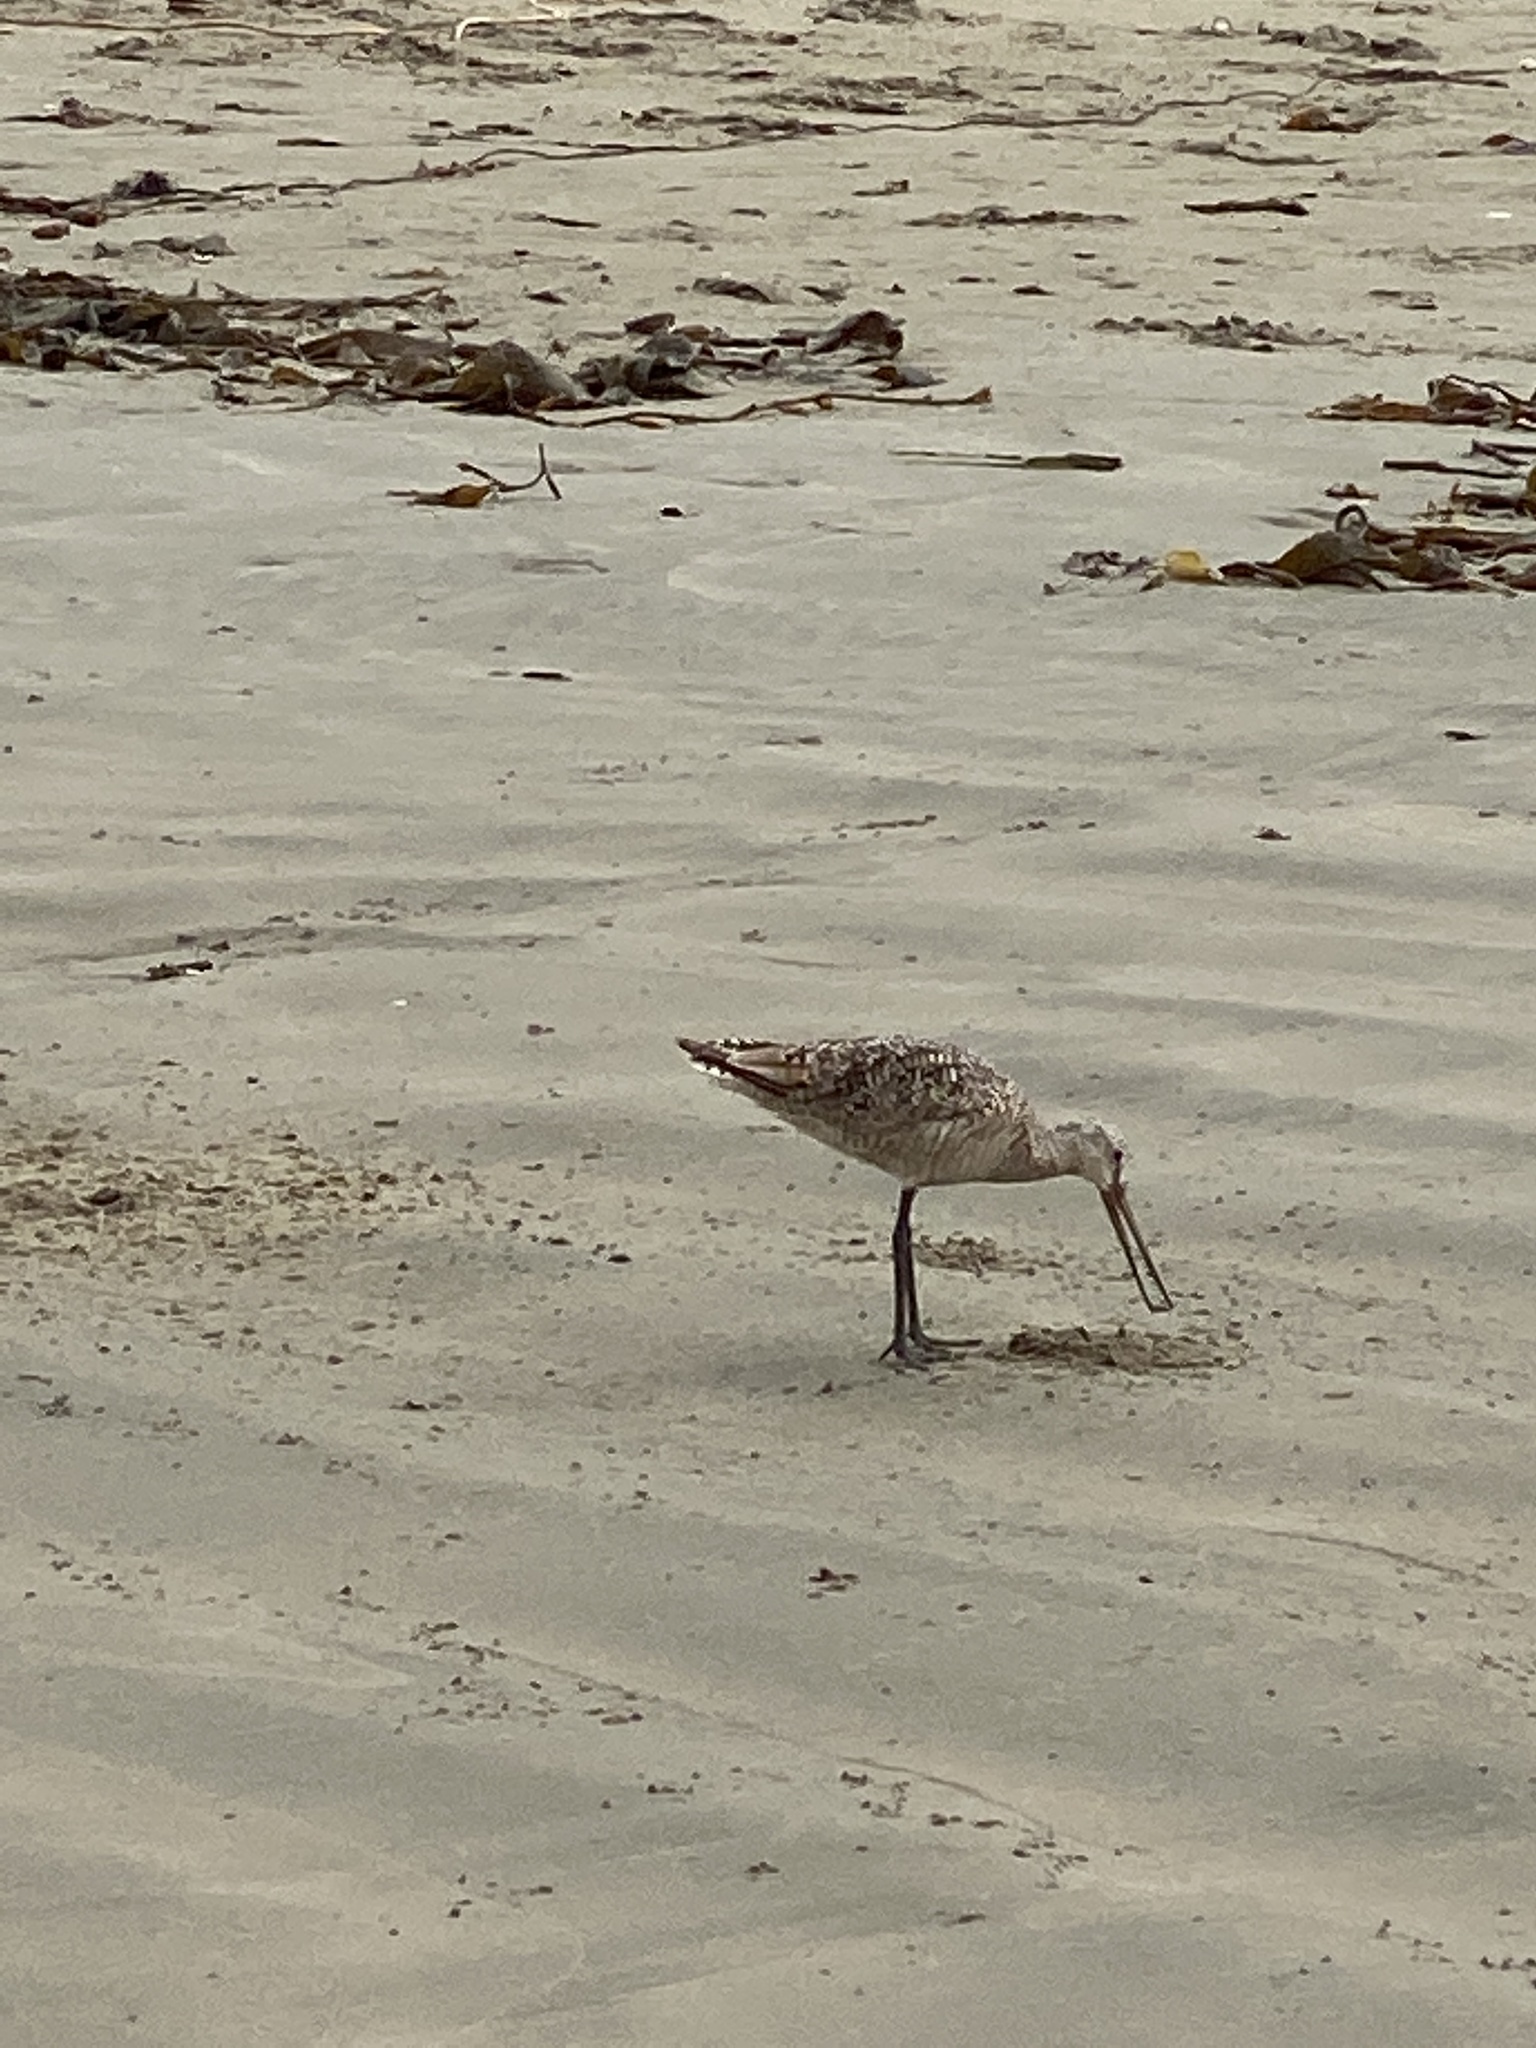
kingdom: Animalia
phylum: Chordata
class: Aves
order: Charadriiformes
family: Scolopacidae
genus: Limosa
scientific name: Limosa fedoa
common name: Marbled godwit
